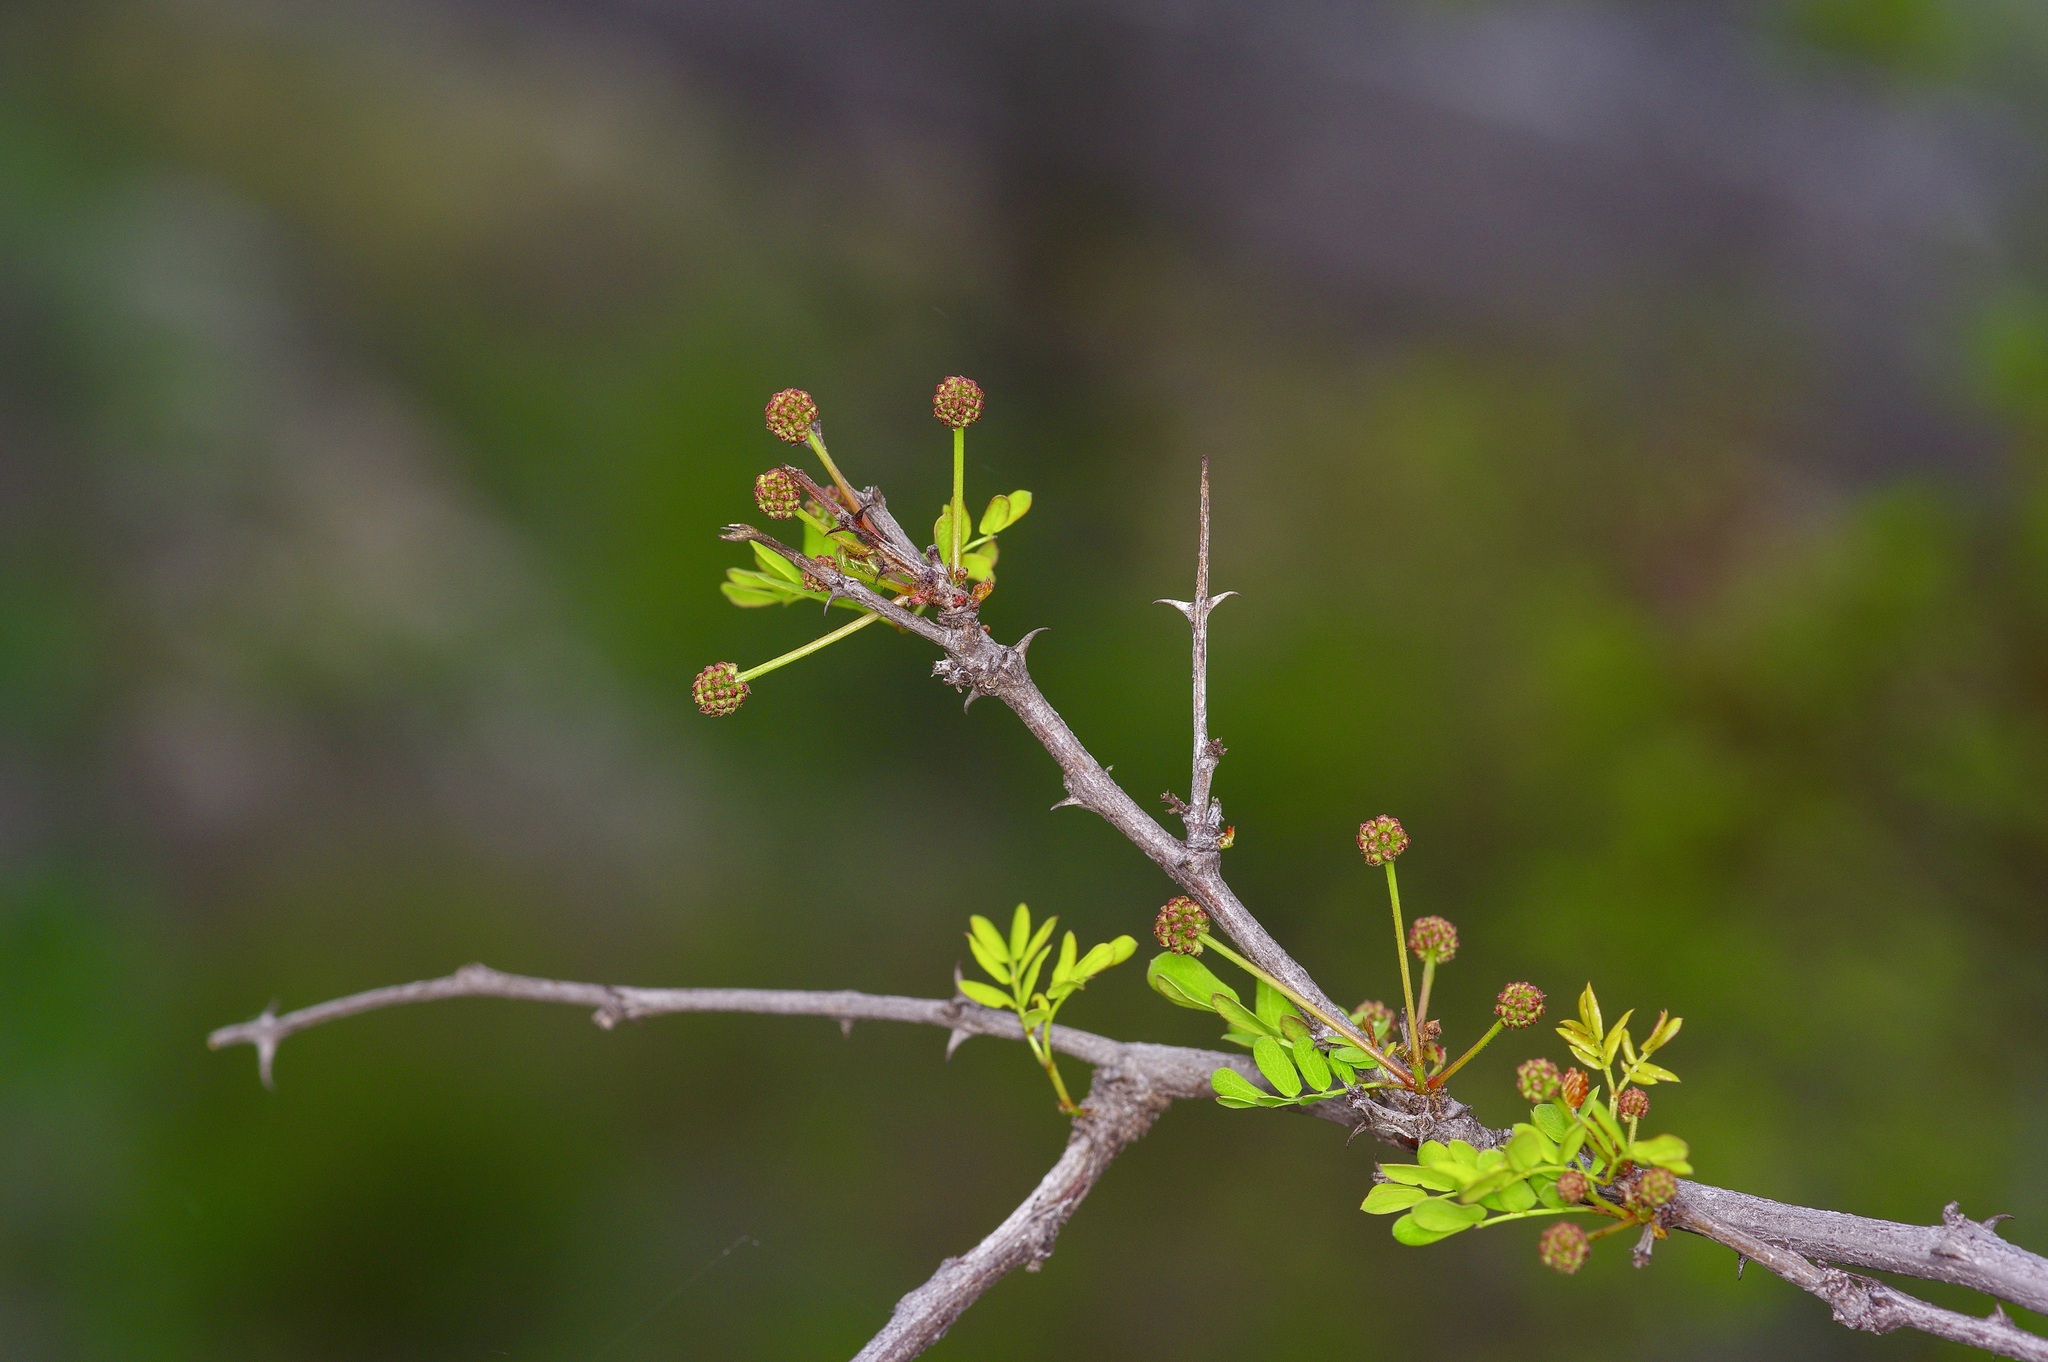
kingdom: Plantae
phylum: Tracheophyta
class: Magnoliopsida
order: Fabales
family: Fabaceae
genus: Senegalia
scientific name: Senegalia roemeriana
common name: Roemer's acacia
